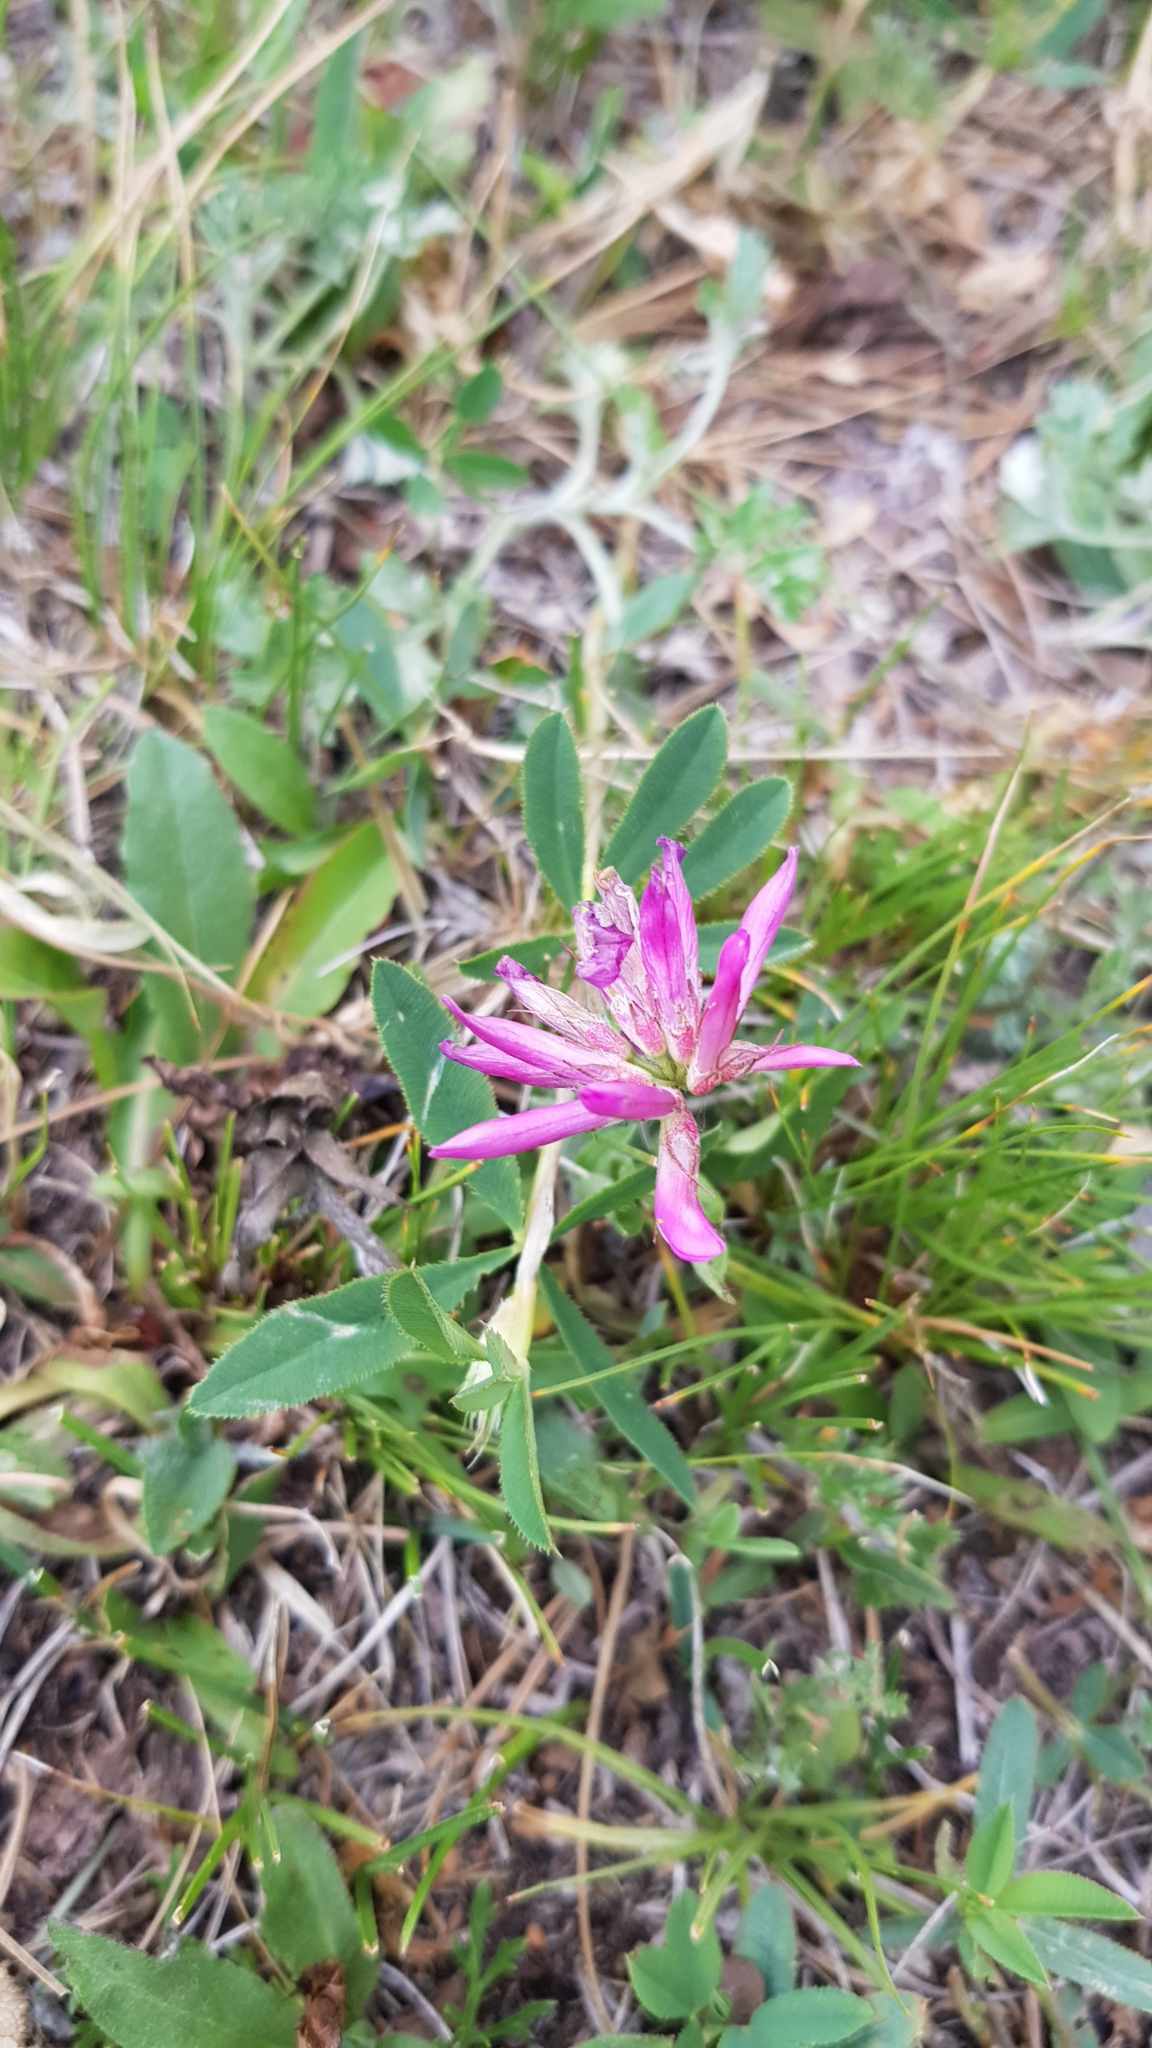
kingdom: Plantae
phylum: Tracheophyta
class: Magnoliopsida
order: Fabales
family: Fabaceae
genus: Trifolium
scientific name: Trifolium lupinaster
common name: Lupine clover
